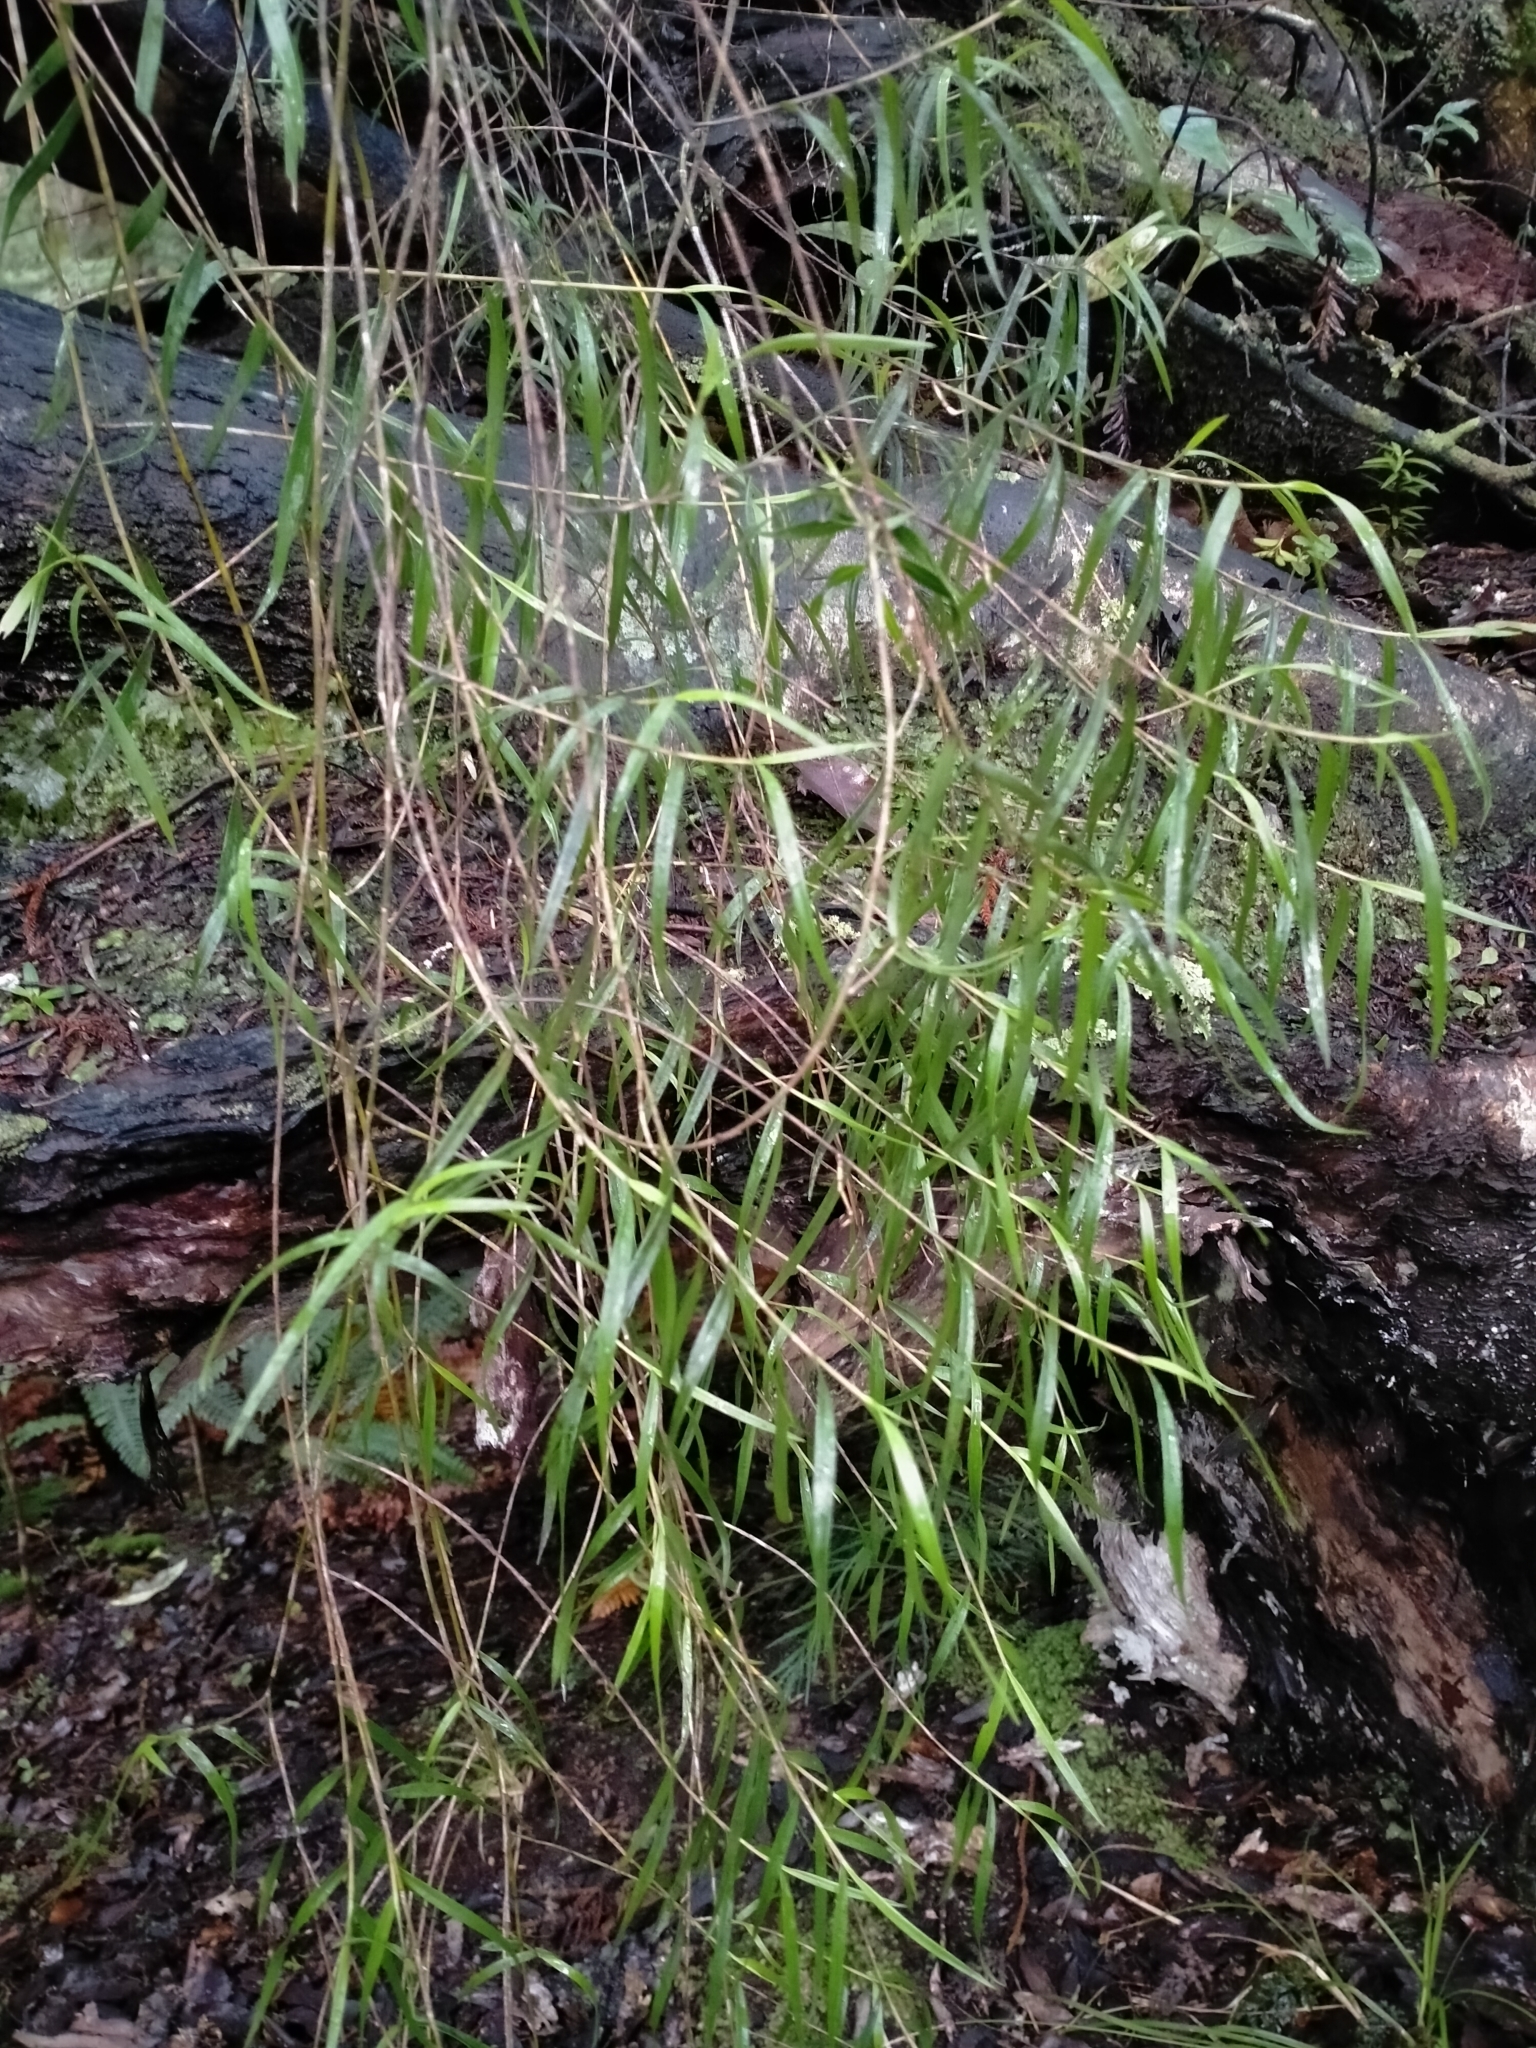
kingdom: Plantae
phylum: Tracheophyta
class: Liliopsida
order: Asparagales
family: Orchidaceae
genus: Dendrobium
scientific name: Dendrobium cunninghamii
